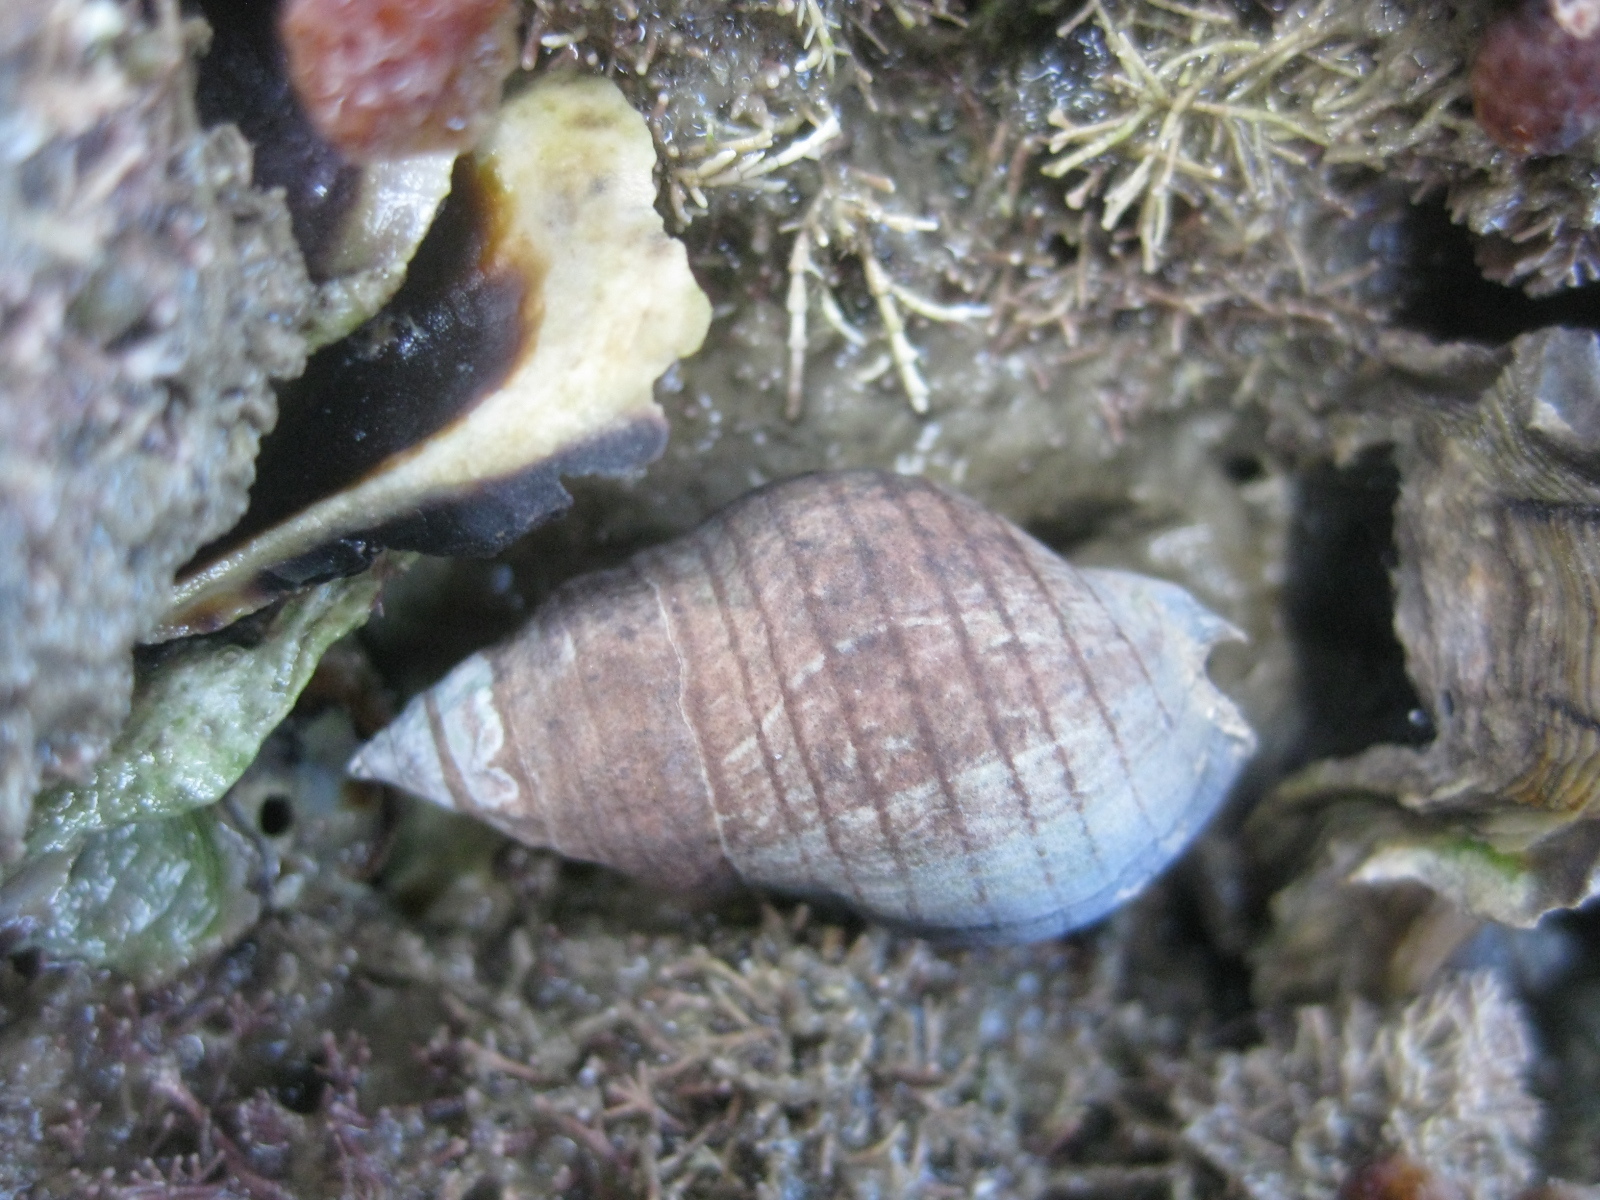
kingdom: Animalia
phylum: Mollusca
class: Gastropoda
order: Neogastropoda
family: Cominellidae
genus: Cominella
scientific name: Cominella virgata
